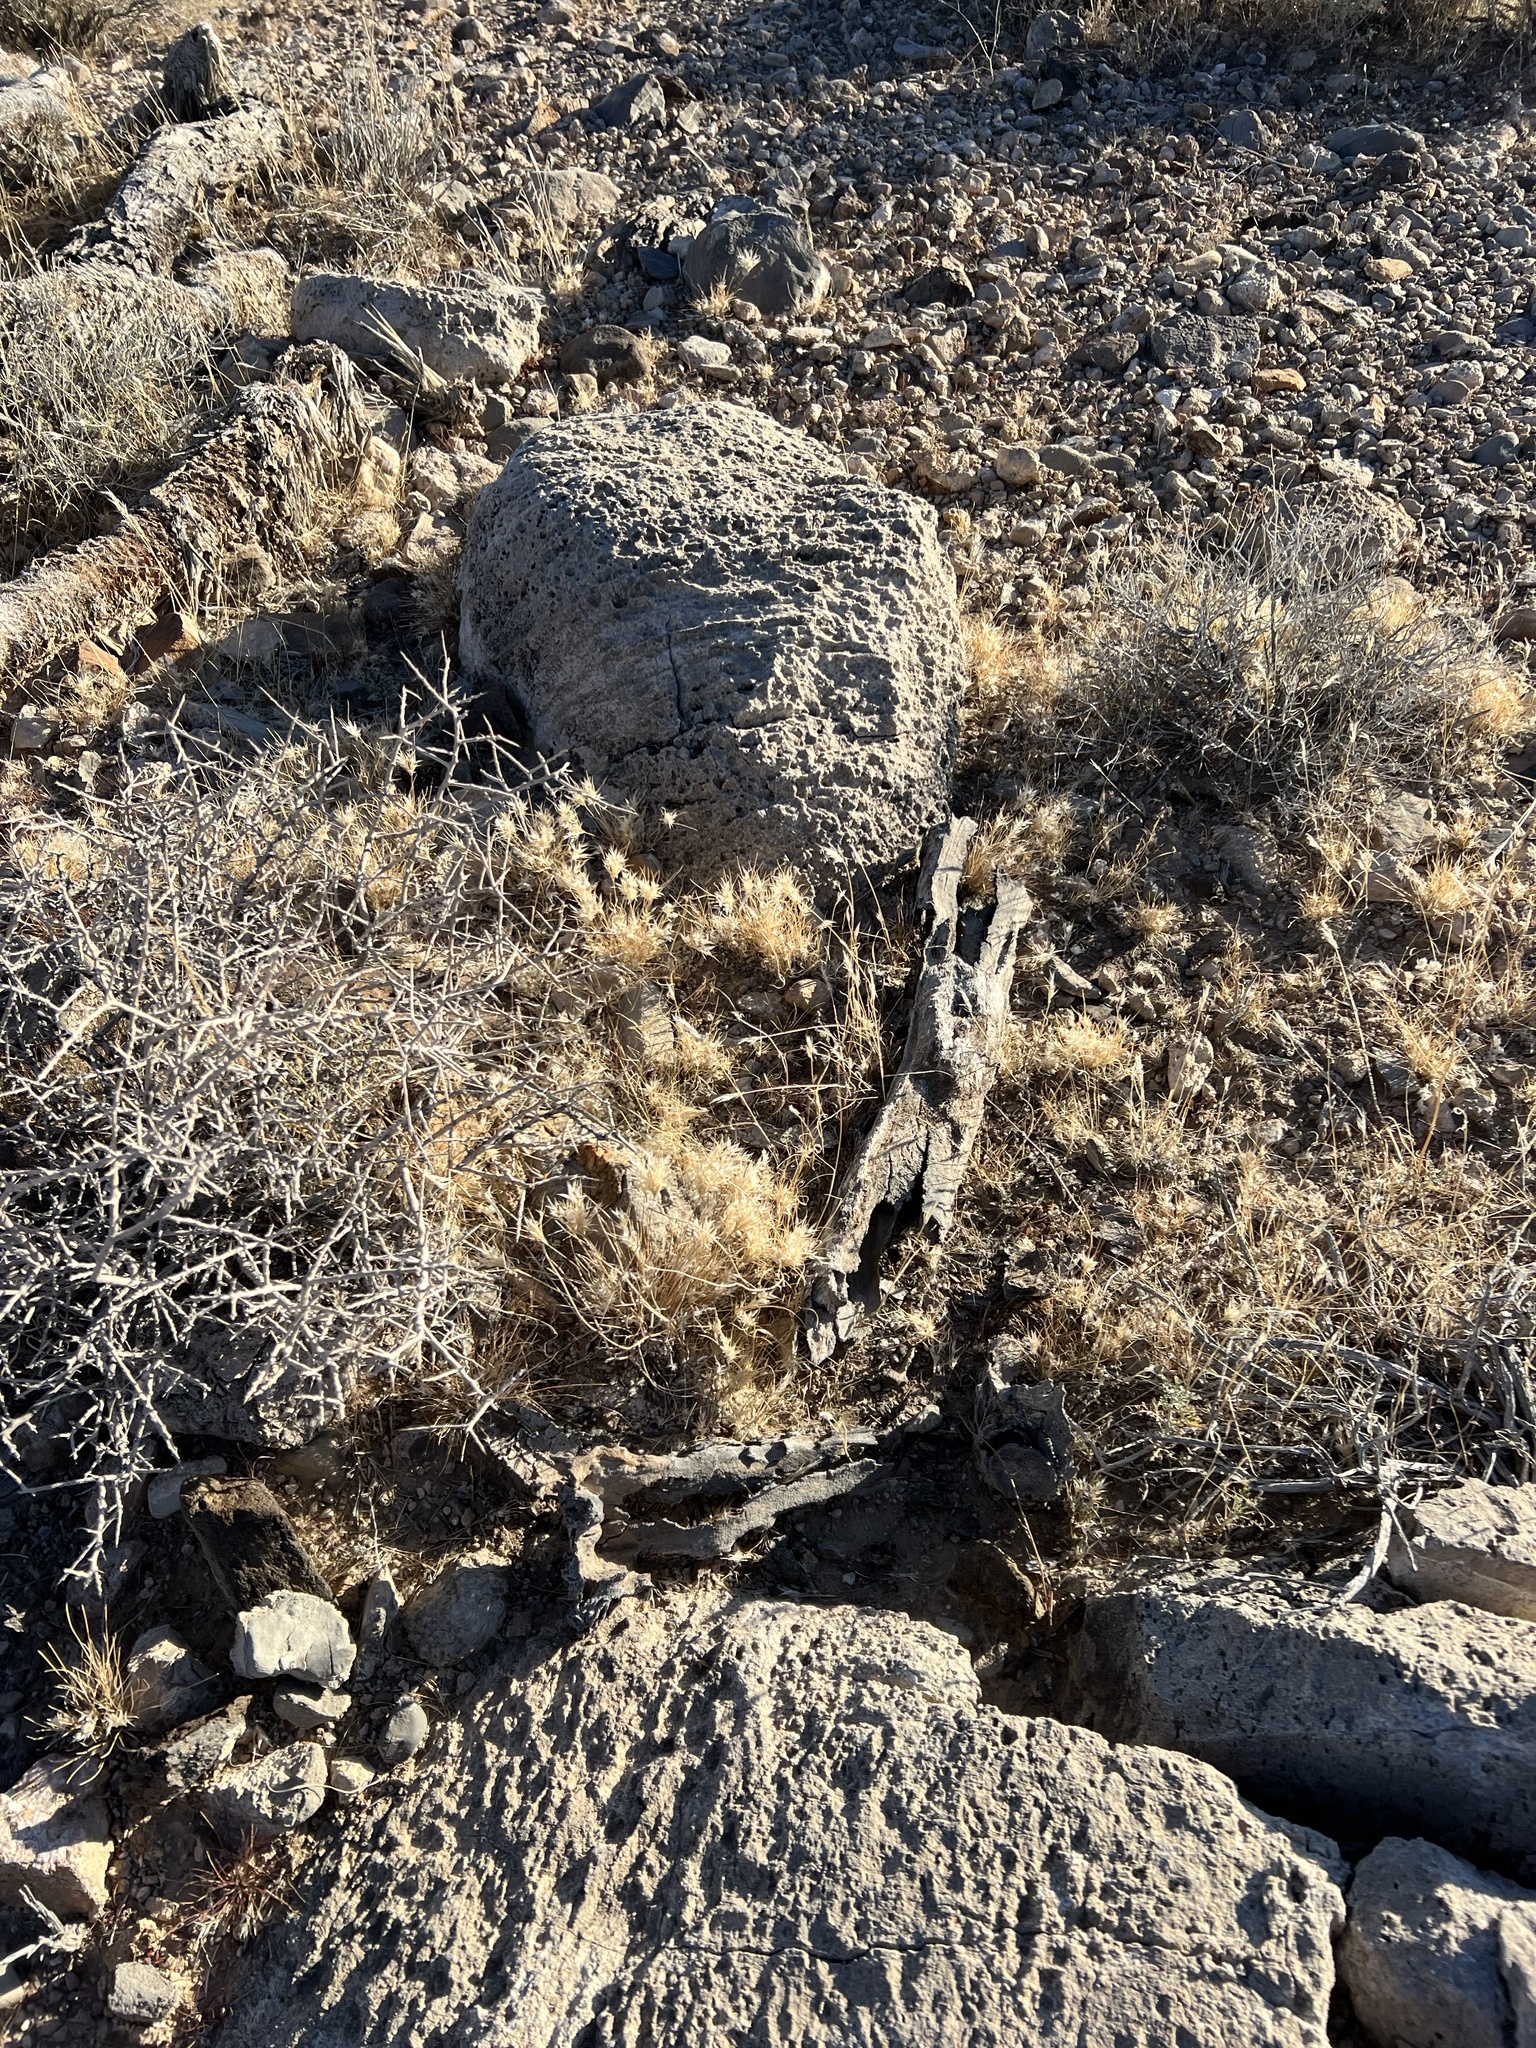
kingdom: Plantae
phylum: Tracheophyta
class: Liliopsida
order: Poales
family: Poaceae
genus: Dasyochloa
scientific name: Dasyochloa pulchella
